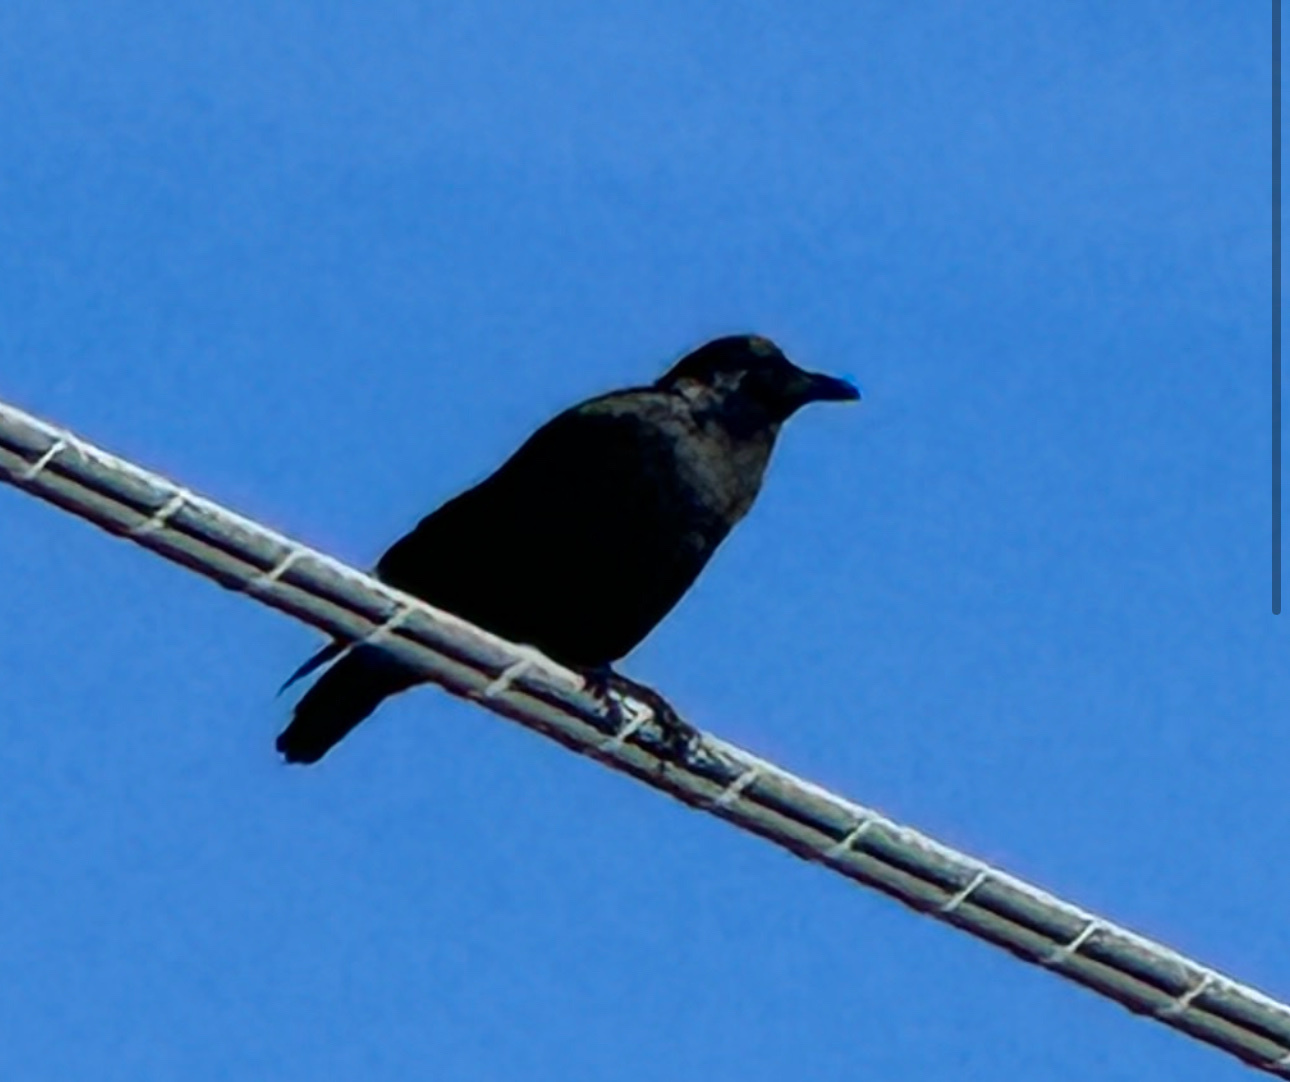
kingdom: Animalia
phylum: Chordata
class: Aves
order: Passeriformes
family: Corvidae
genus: Corvus
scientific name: Corvus brachyrhynchos
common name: American crow
